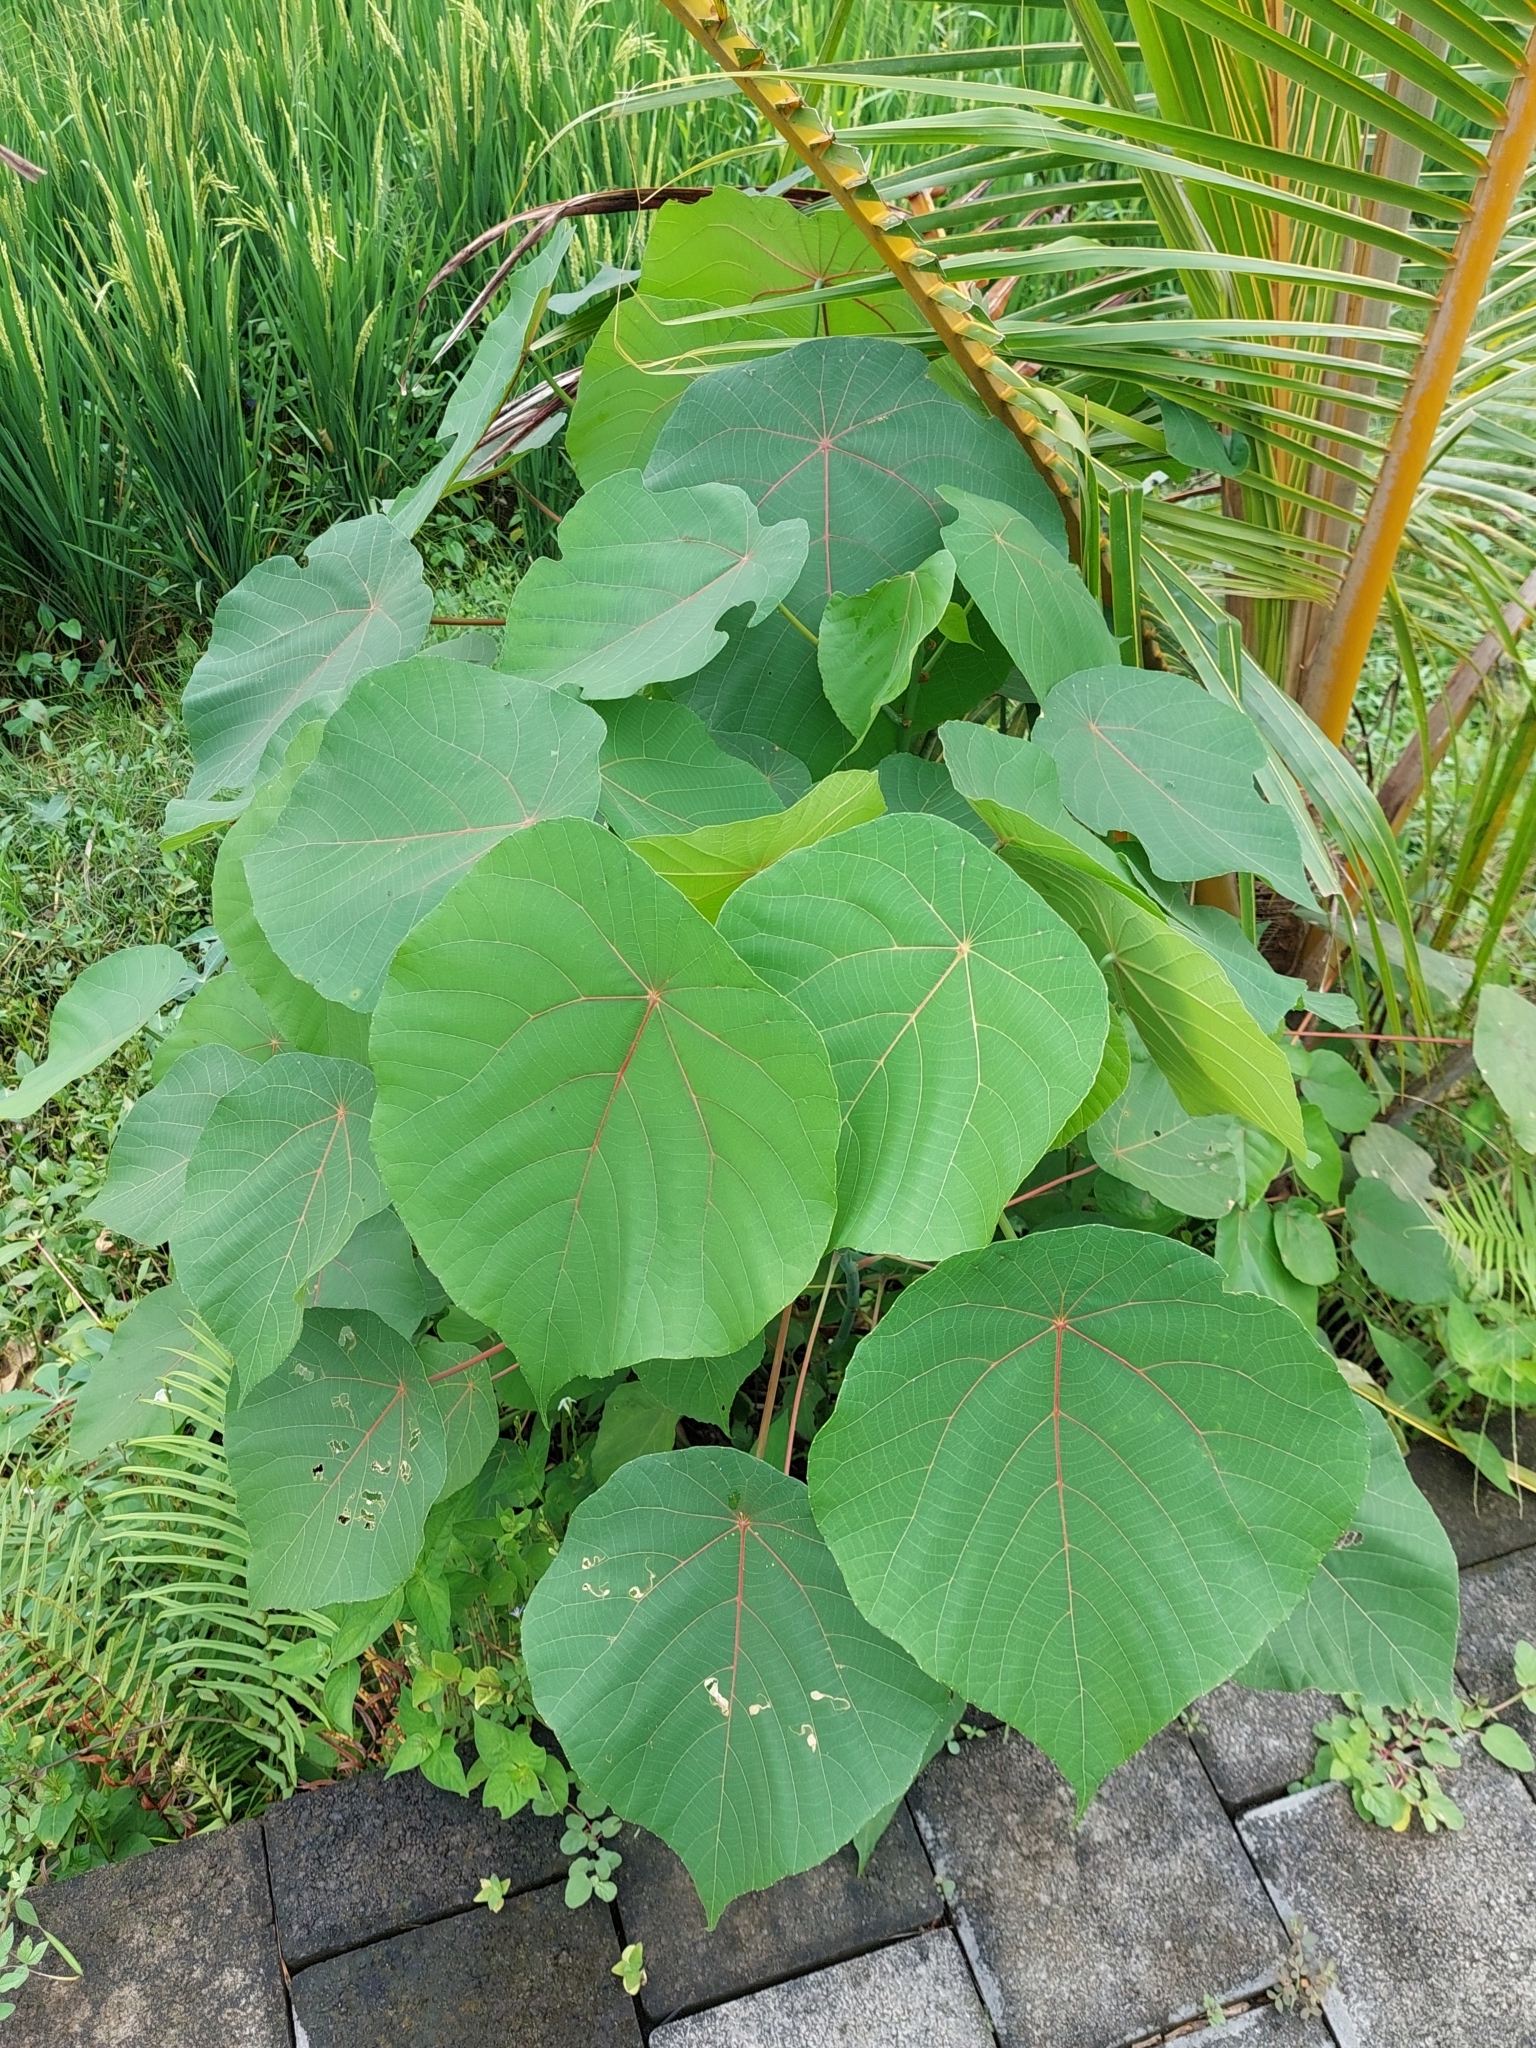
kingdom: Plantae
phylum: Tracheophyta
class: Magnoliopsida
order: Malpighiales
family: Euphorbiaceae
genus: Macaranga
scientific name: Macaranga tanarius
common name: Parasol leaf tree
